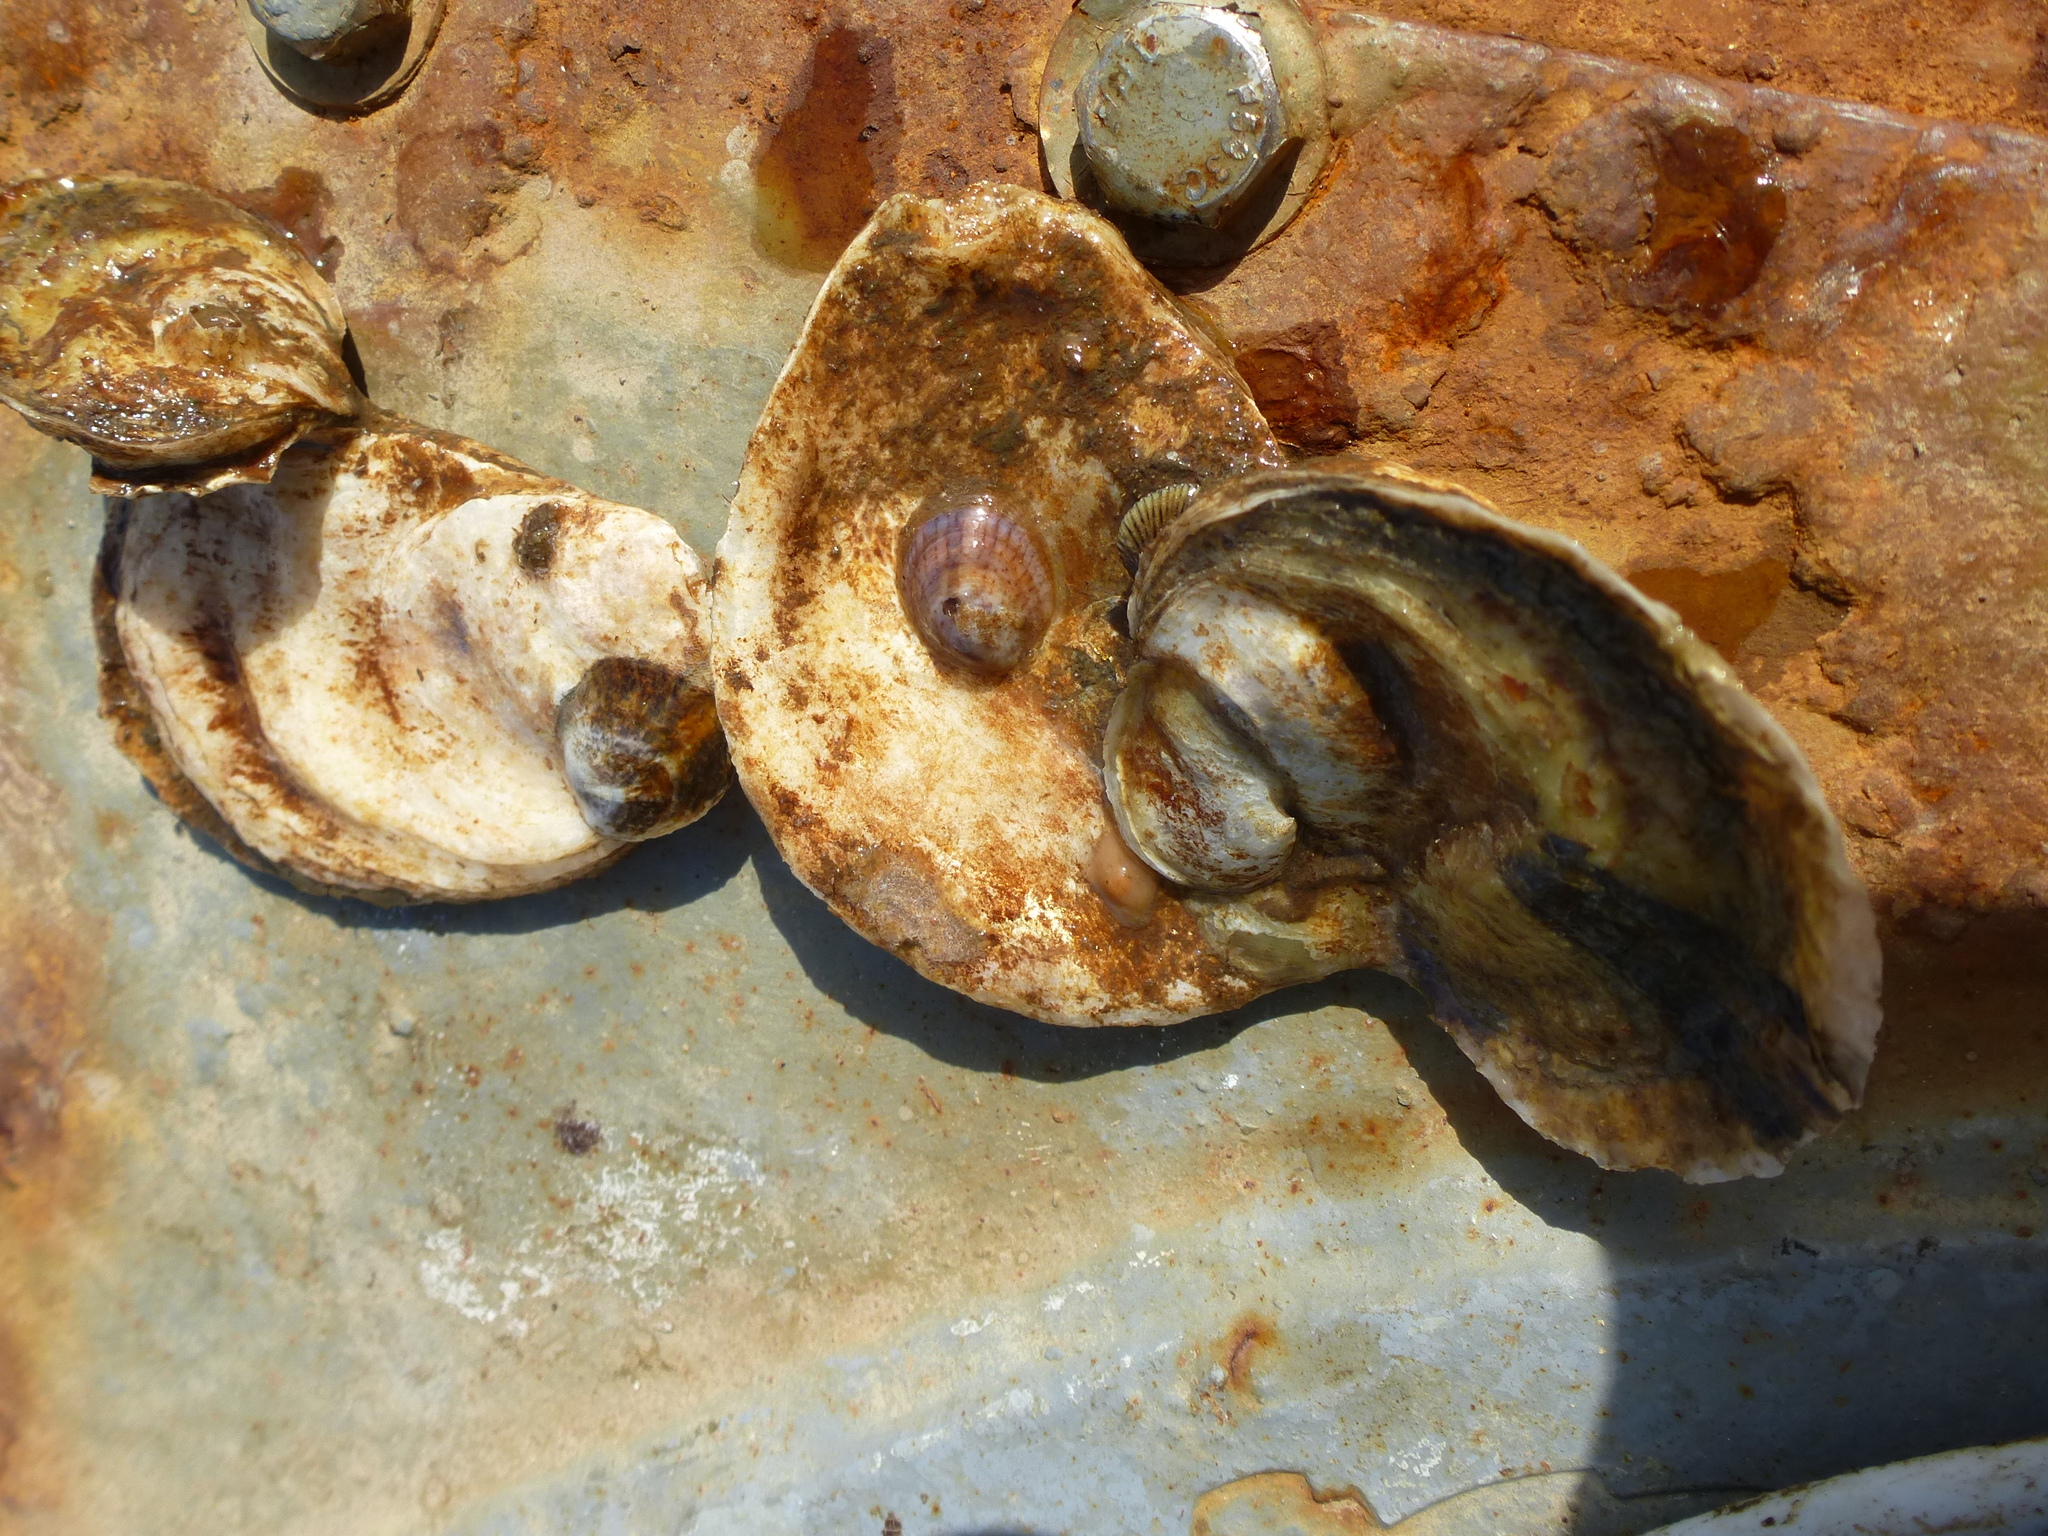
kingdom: Animalia
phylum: Mollusca
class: Gastropoda
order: Littorinimorpha
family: Calyptraeidae
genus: Crepidula
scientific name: Crepidula fornicata
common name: Slipper limpet
